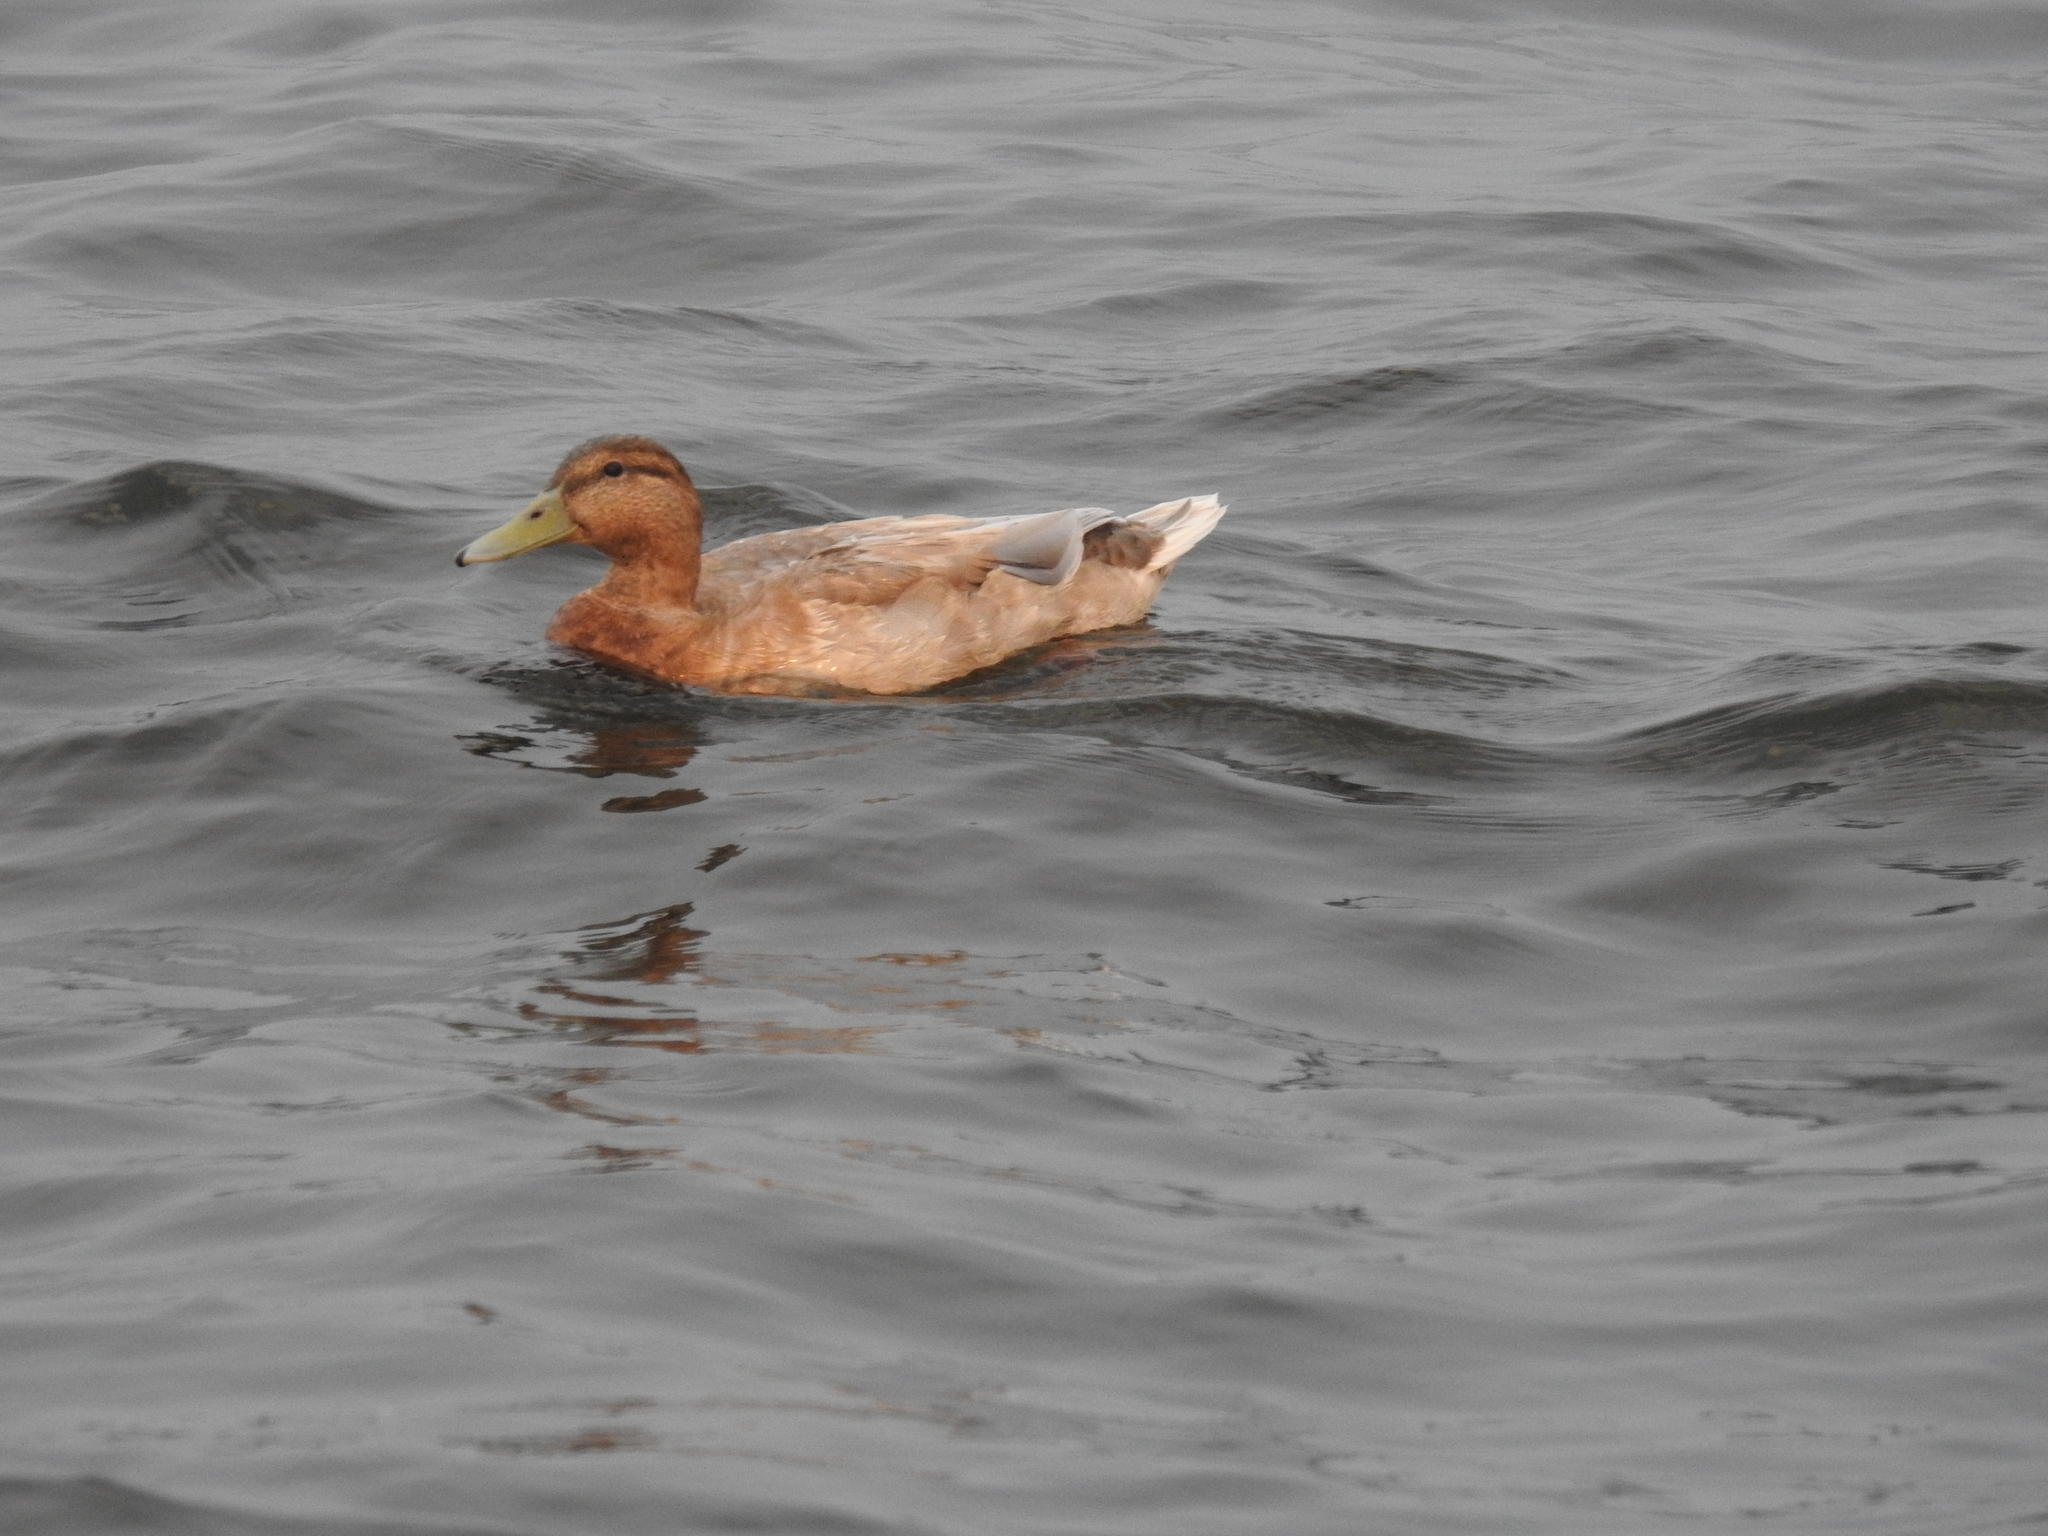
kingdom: Animalia
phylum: Chordata
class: Aves
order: Anseriformes
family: Anatidae
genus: Anas
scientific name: Anas platyrhynchos
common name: Mallard
